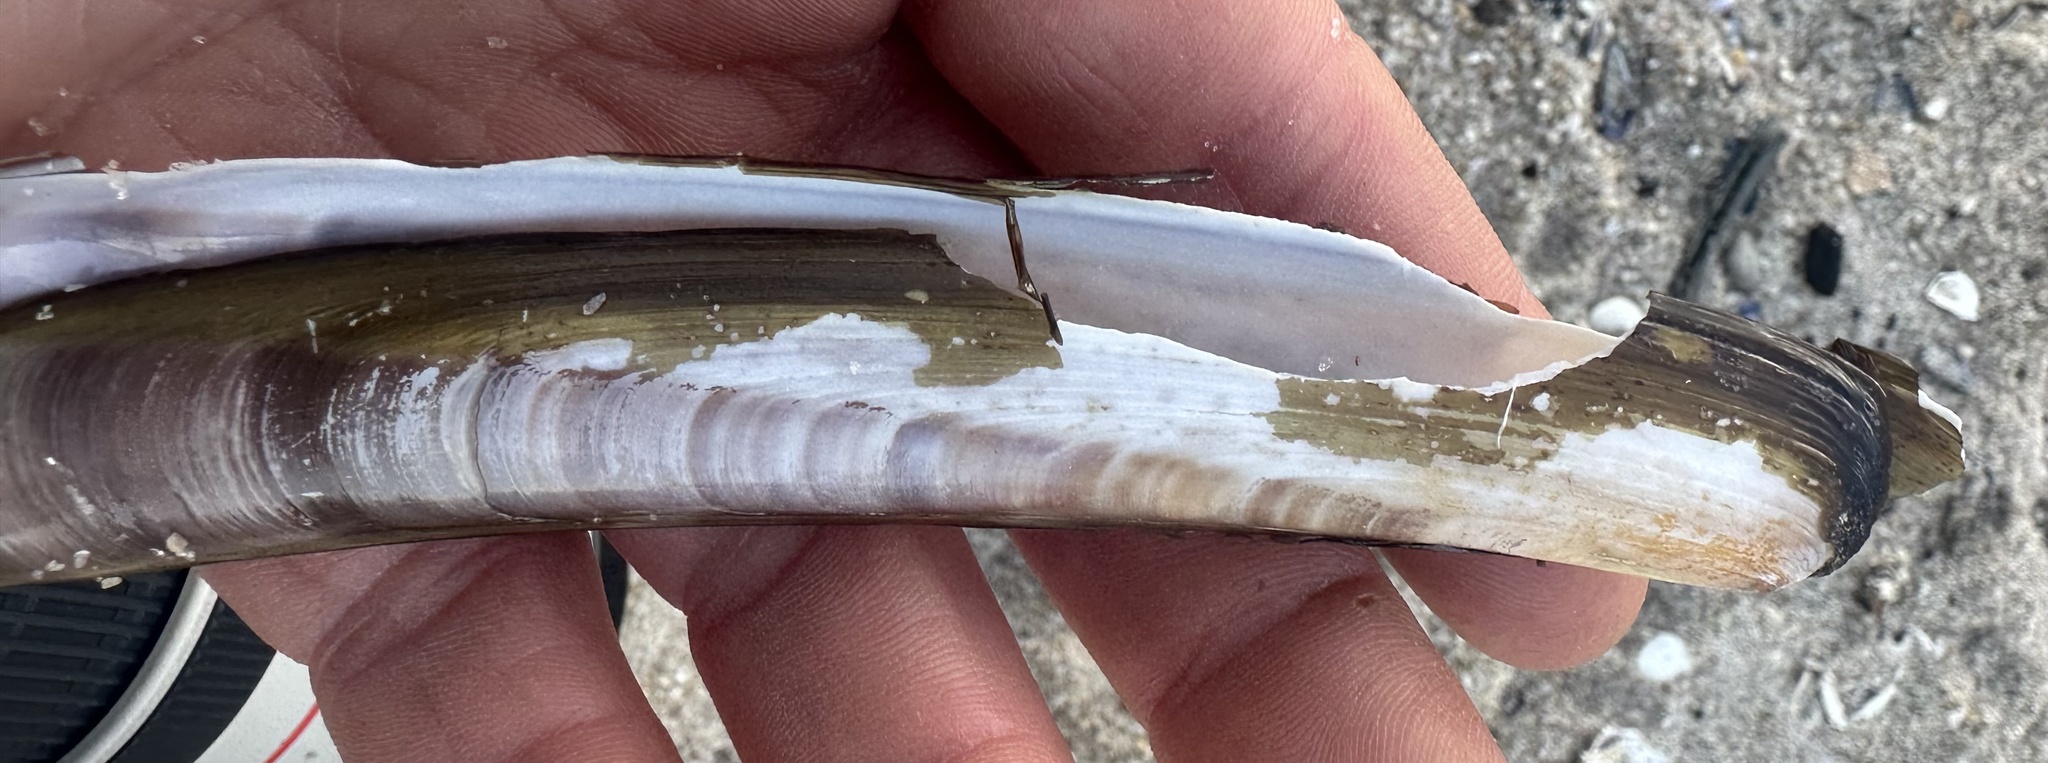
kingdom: Animalia
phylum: Mollusca
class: Bivalvia
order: Adapedonta
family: Pharidae
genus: Ensis
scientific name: Ensis leei
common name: American jack knife clam
